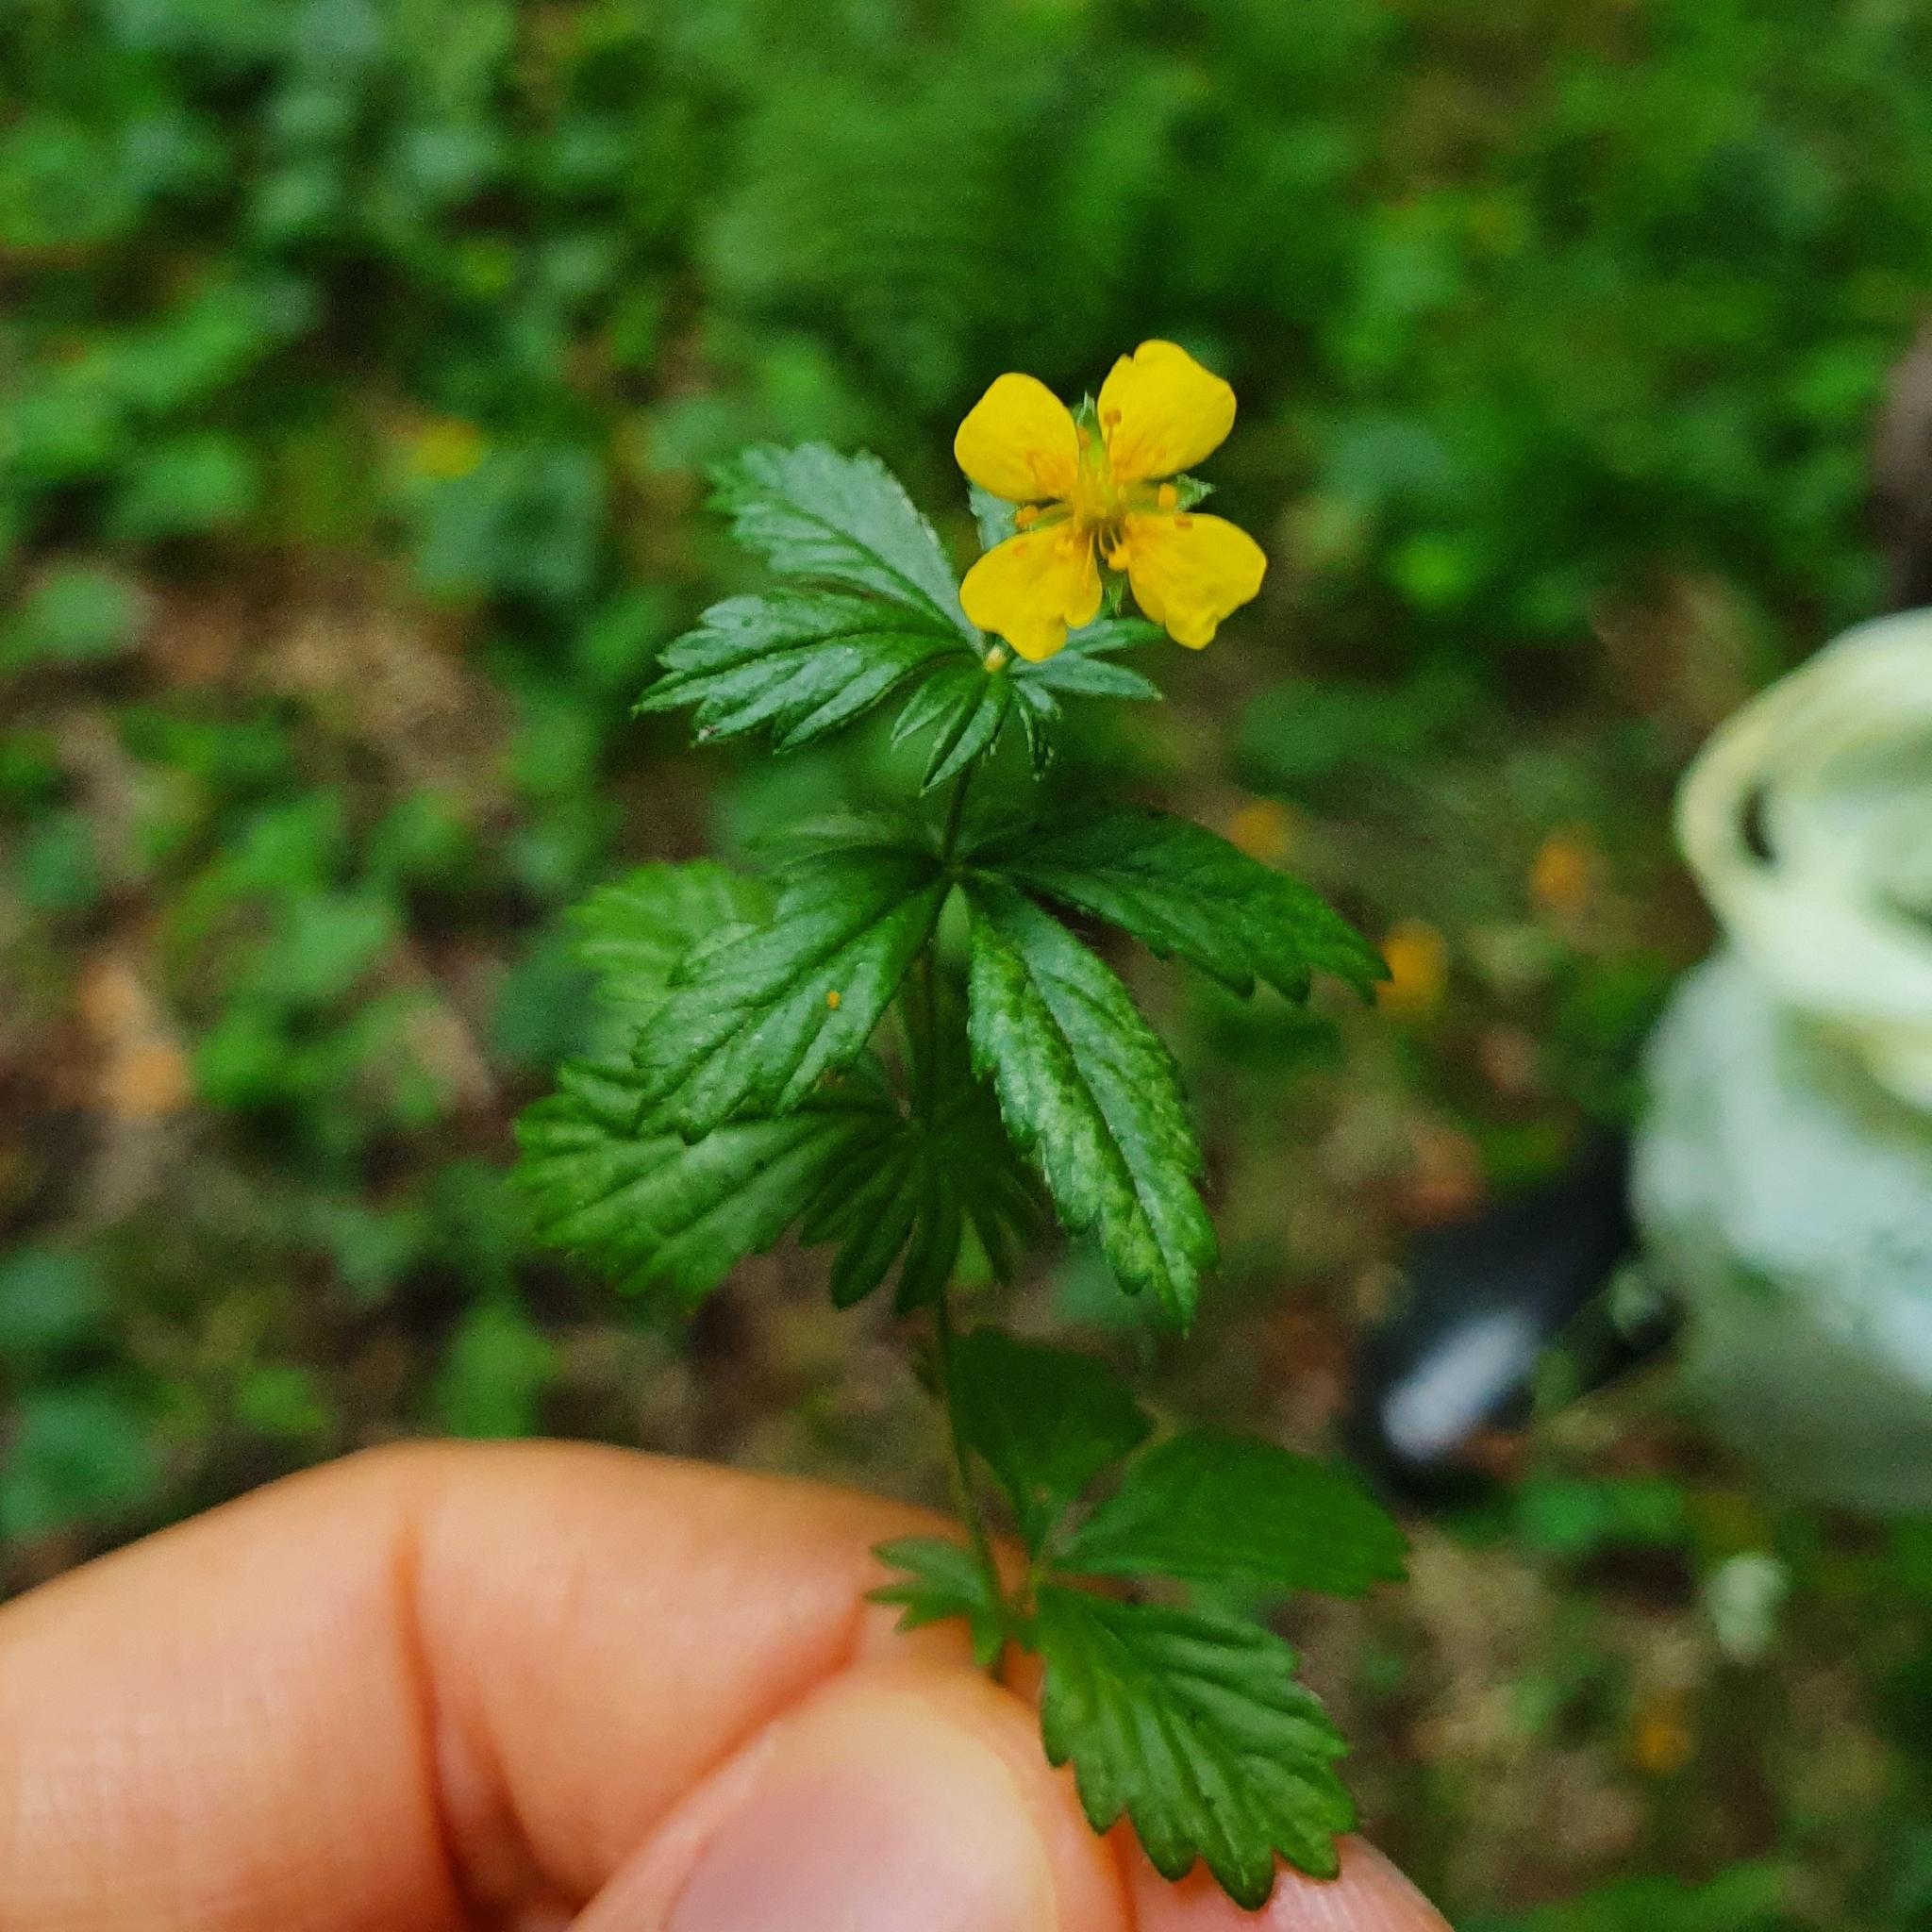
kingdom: Plantae
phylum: Tracheophyta
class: Magnoliopsida
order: Rosales
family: Rosaceae
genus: Potentilla
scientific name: Potentilla erecta
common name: Tormentil
